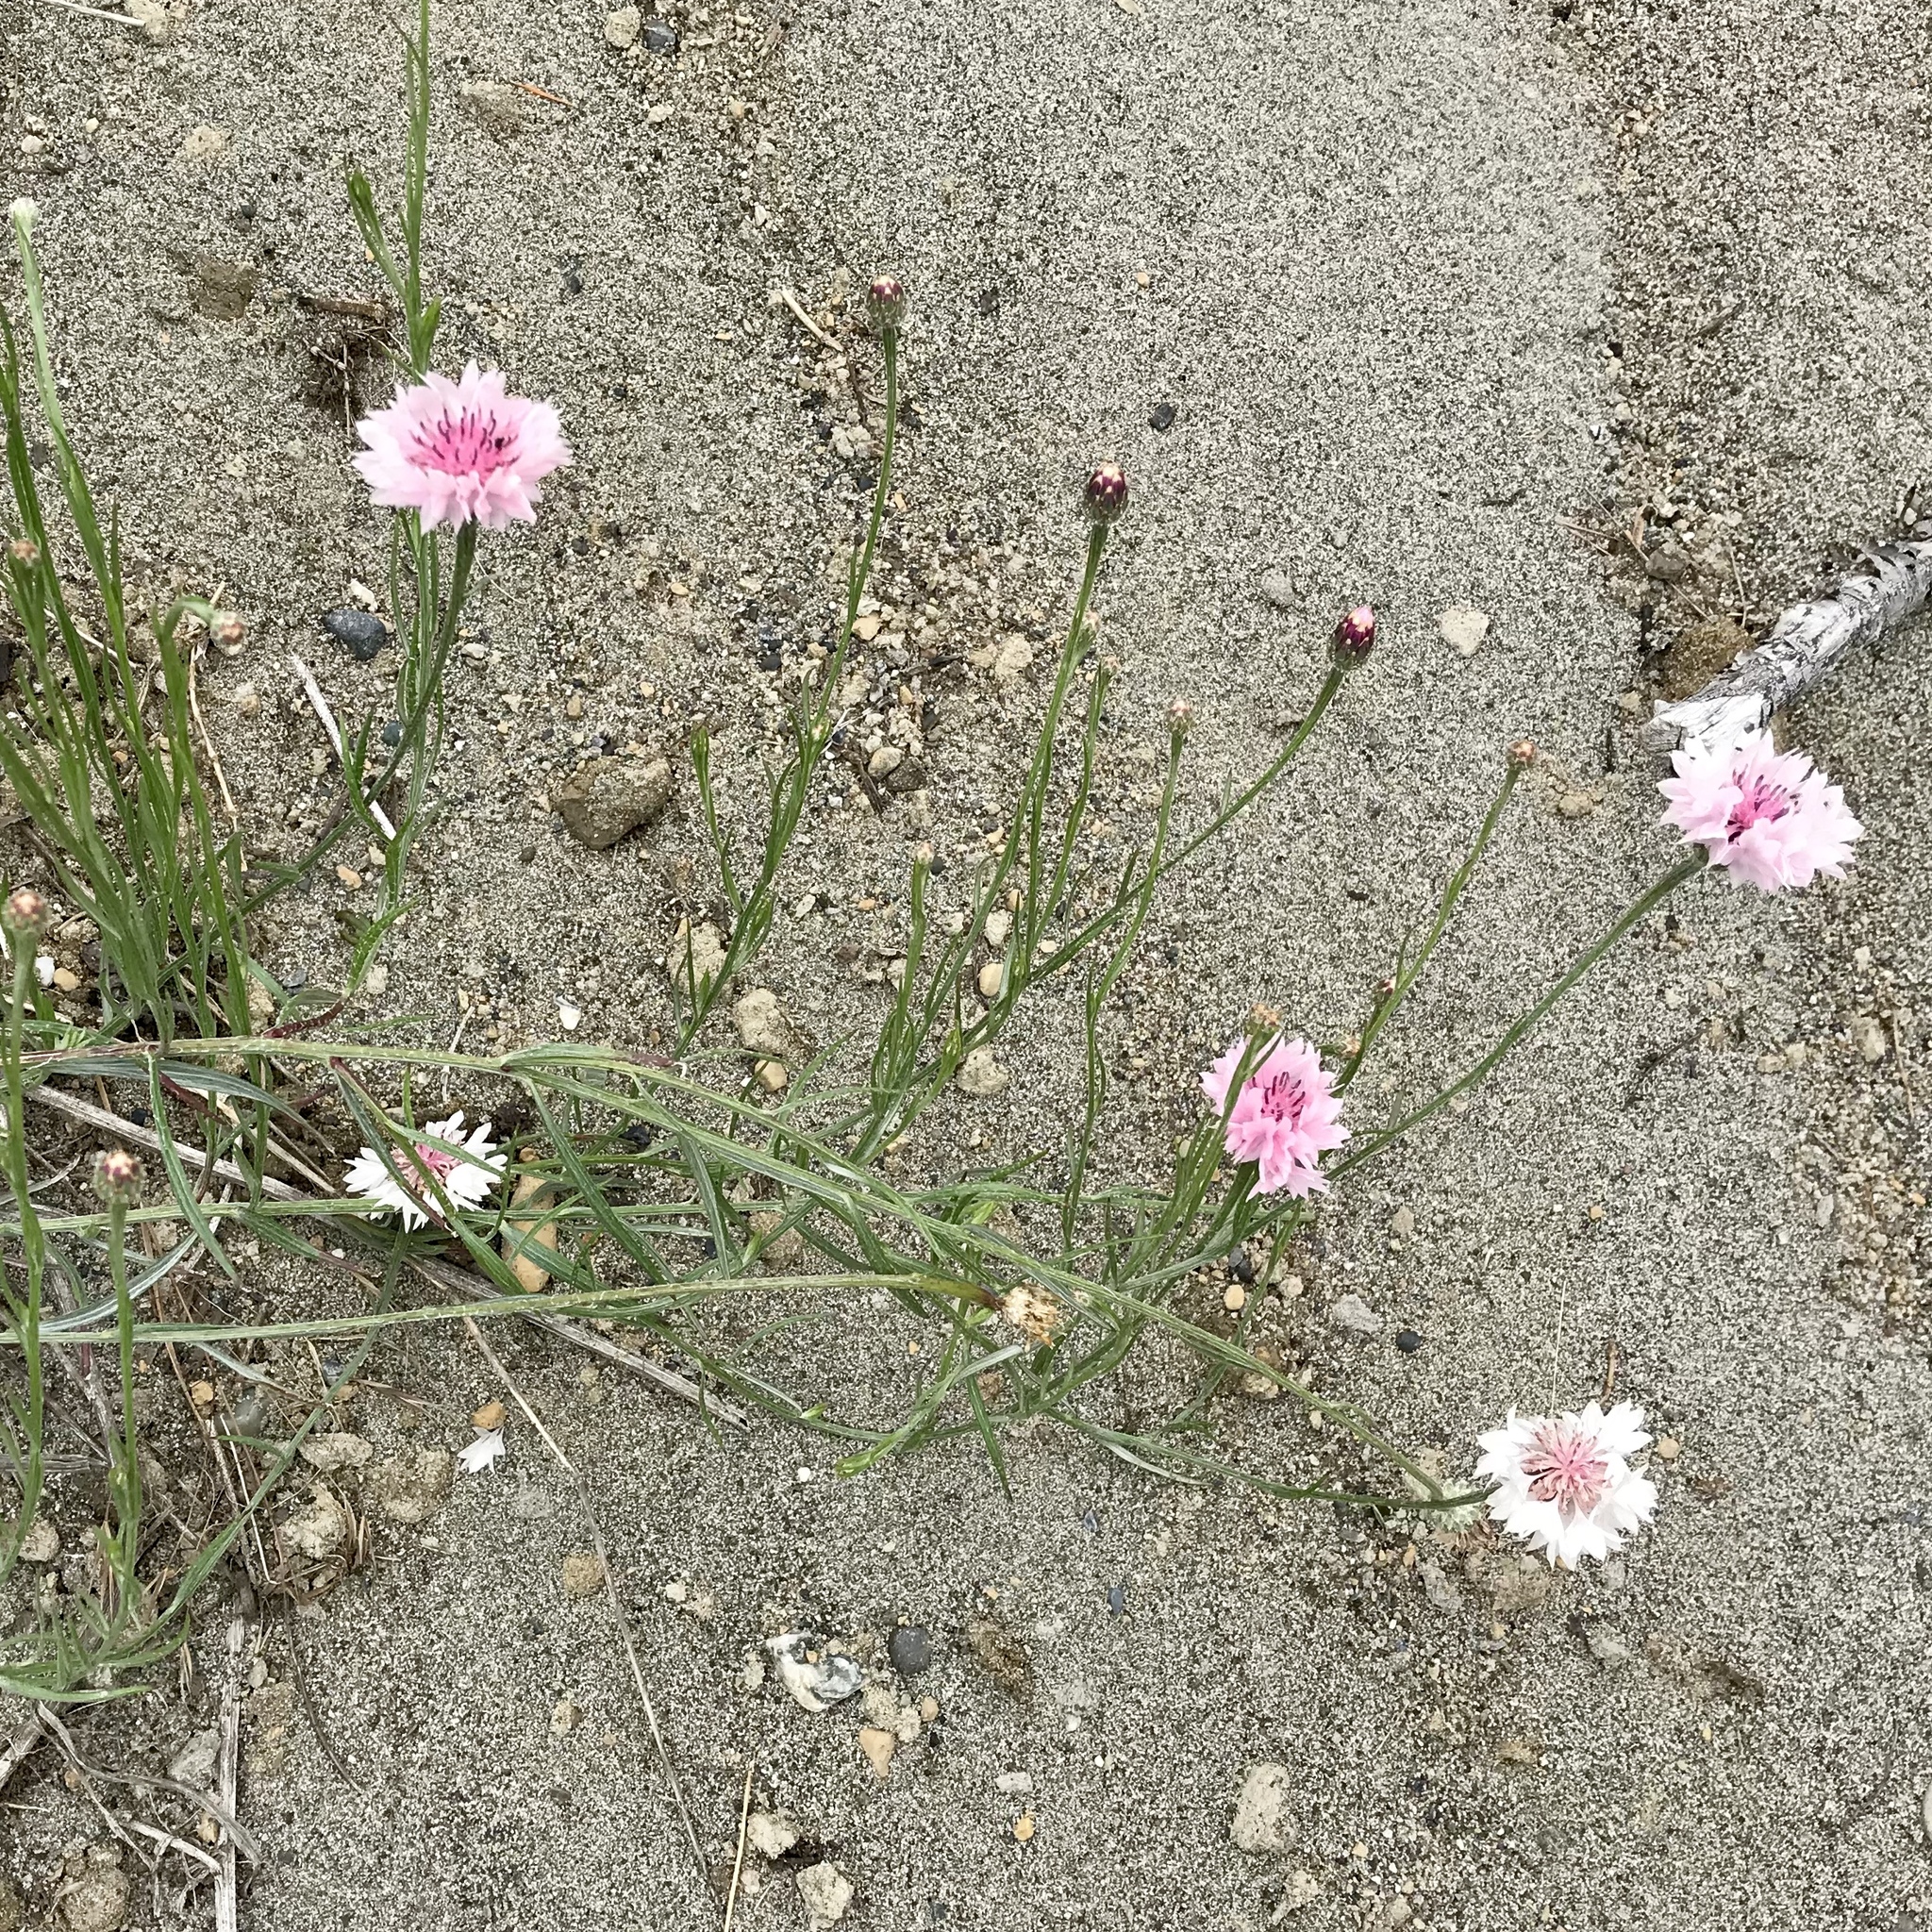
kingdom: Plantae
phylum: Tracheophyta
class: Magnoliopsida
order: Asterales
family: Asteraceae
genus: Centaurea
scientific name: Centaurea cyanus
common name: Cornflower
